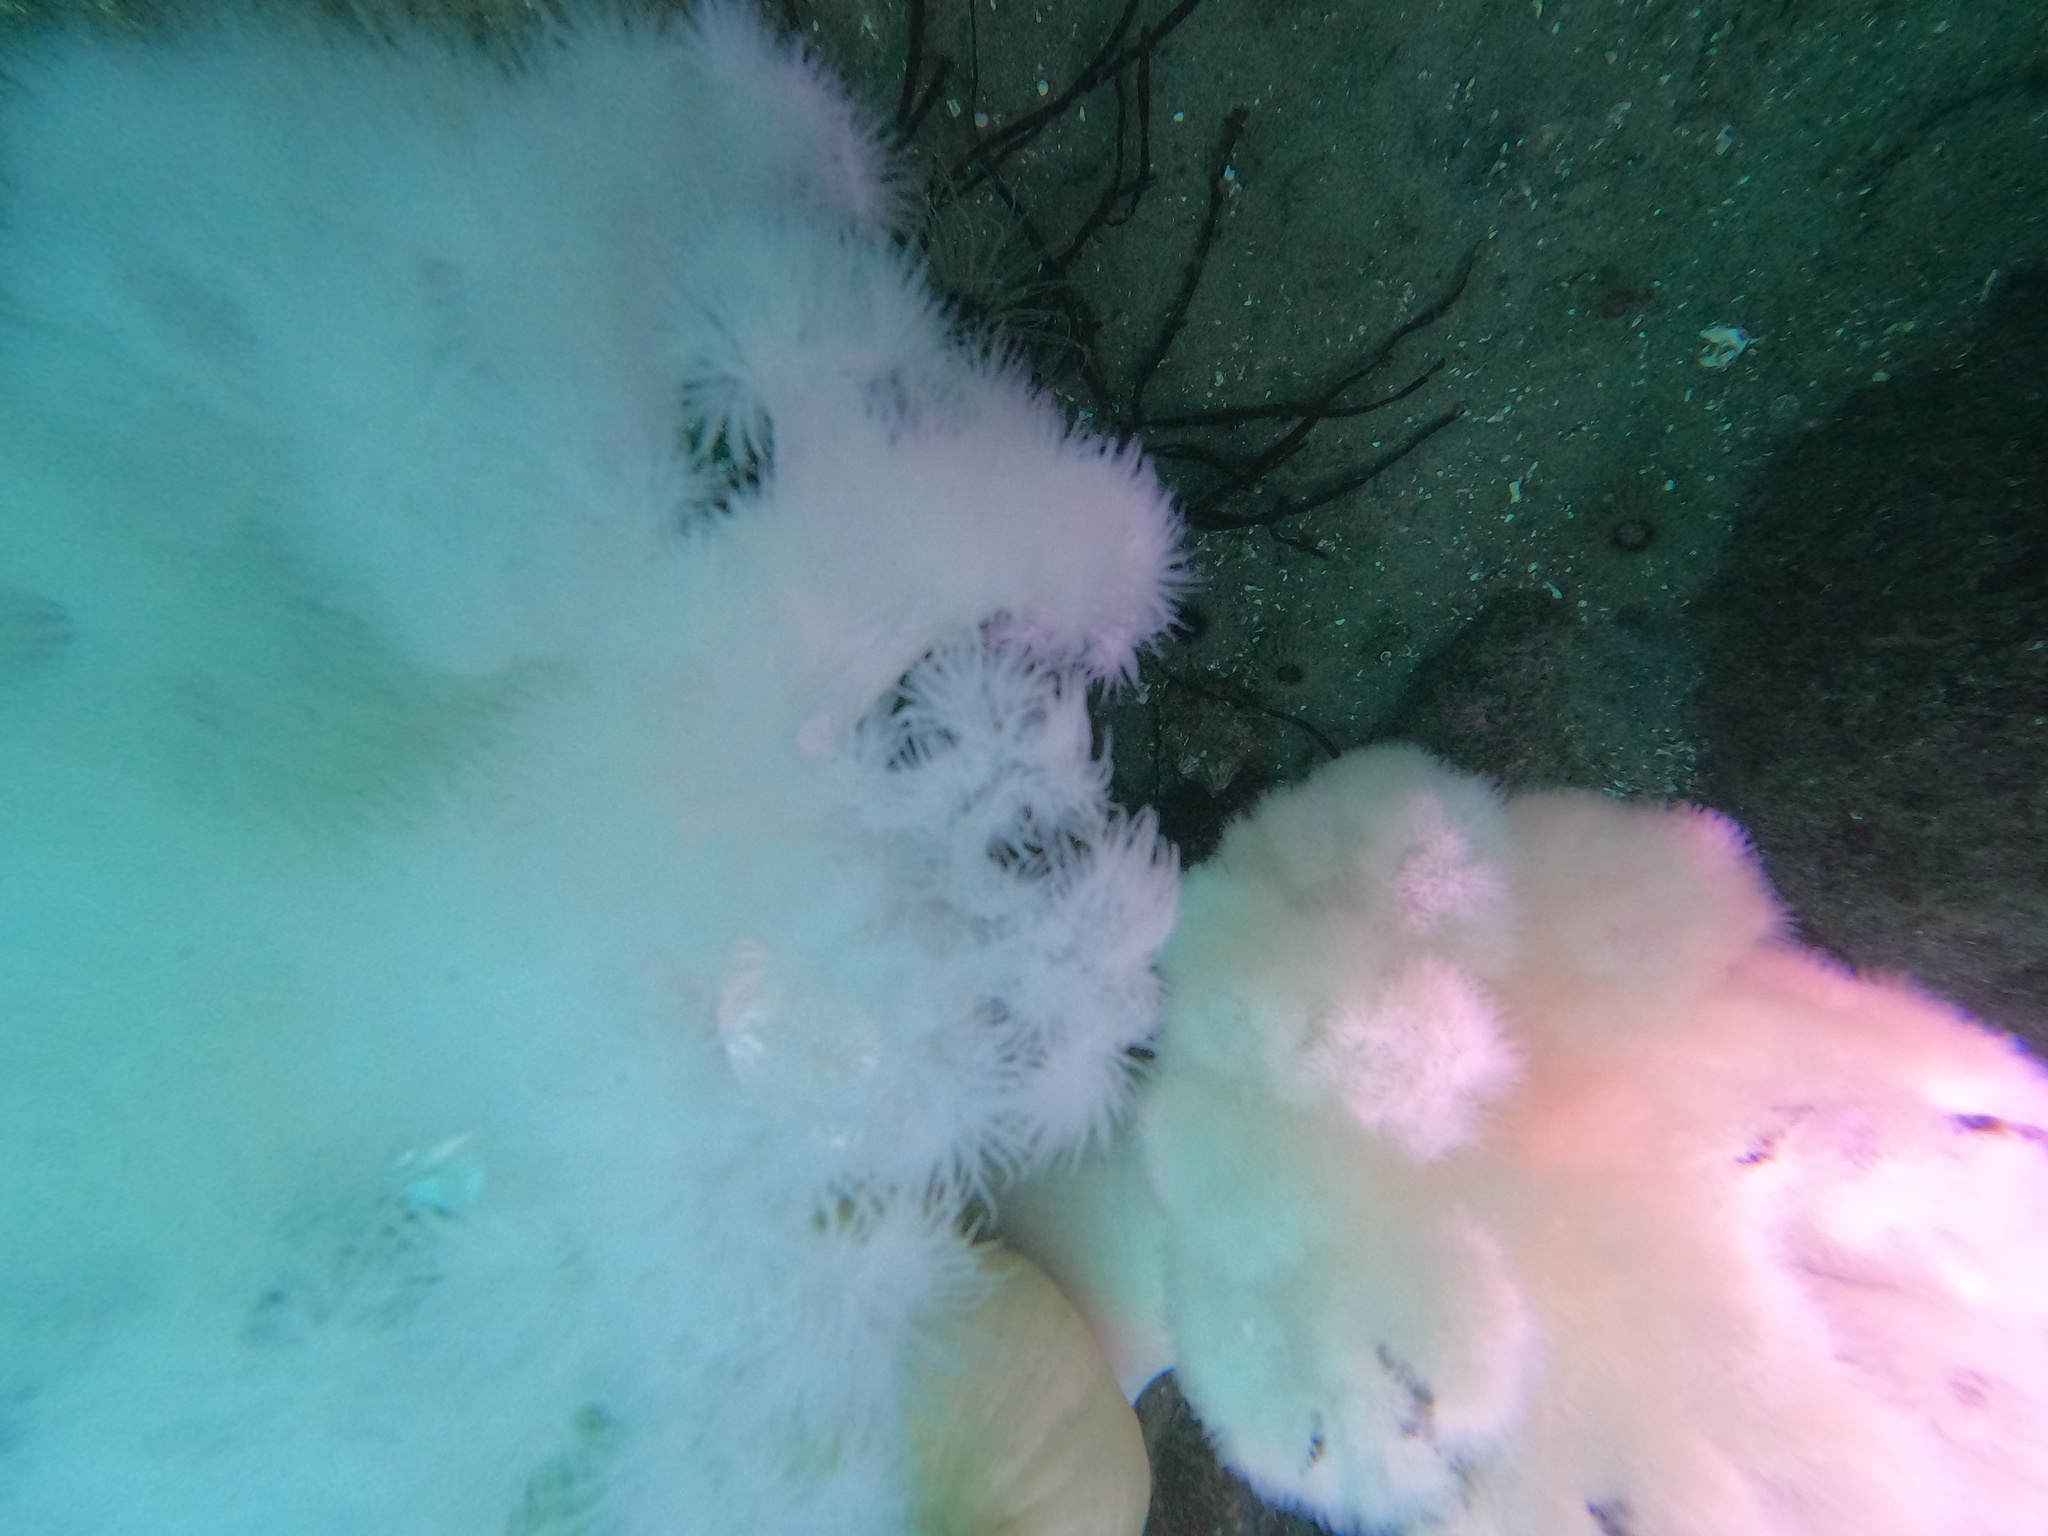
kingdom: Animalia
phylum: Cnidaria
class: Anthozoa
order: Actiniaria
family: Metridiidae
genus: Metridium
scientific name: Metridium farcimen
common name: Gigantic anemone
